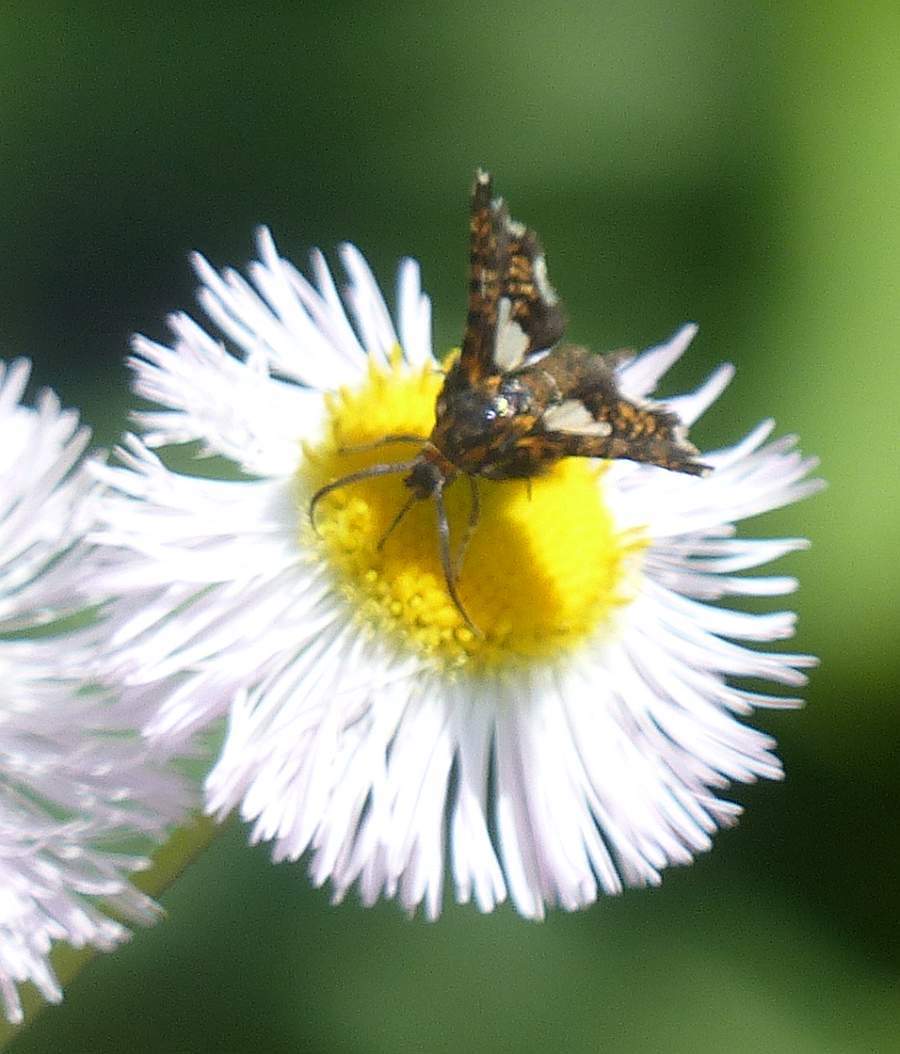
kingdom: Animalia
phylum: Arthropoda
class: Insecta
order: Lepidoptera
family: Thyrididae
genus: Thyris
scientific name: Thyris maculata
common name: Spotted thyris moth
